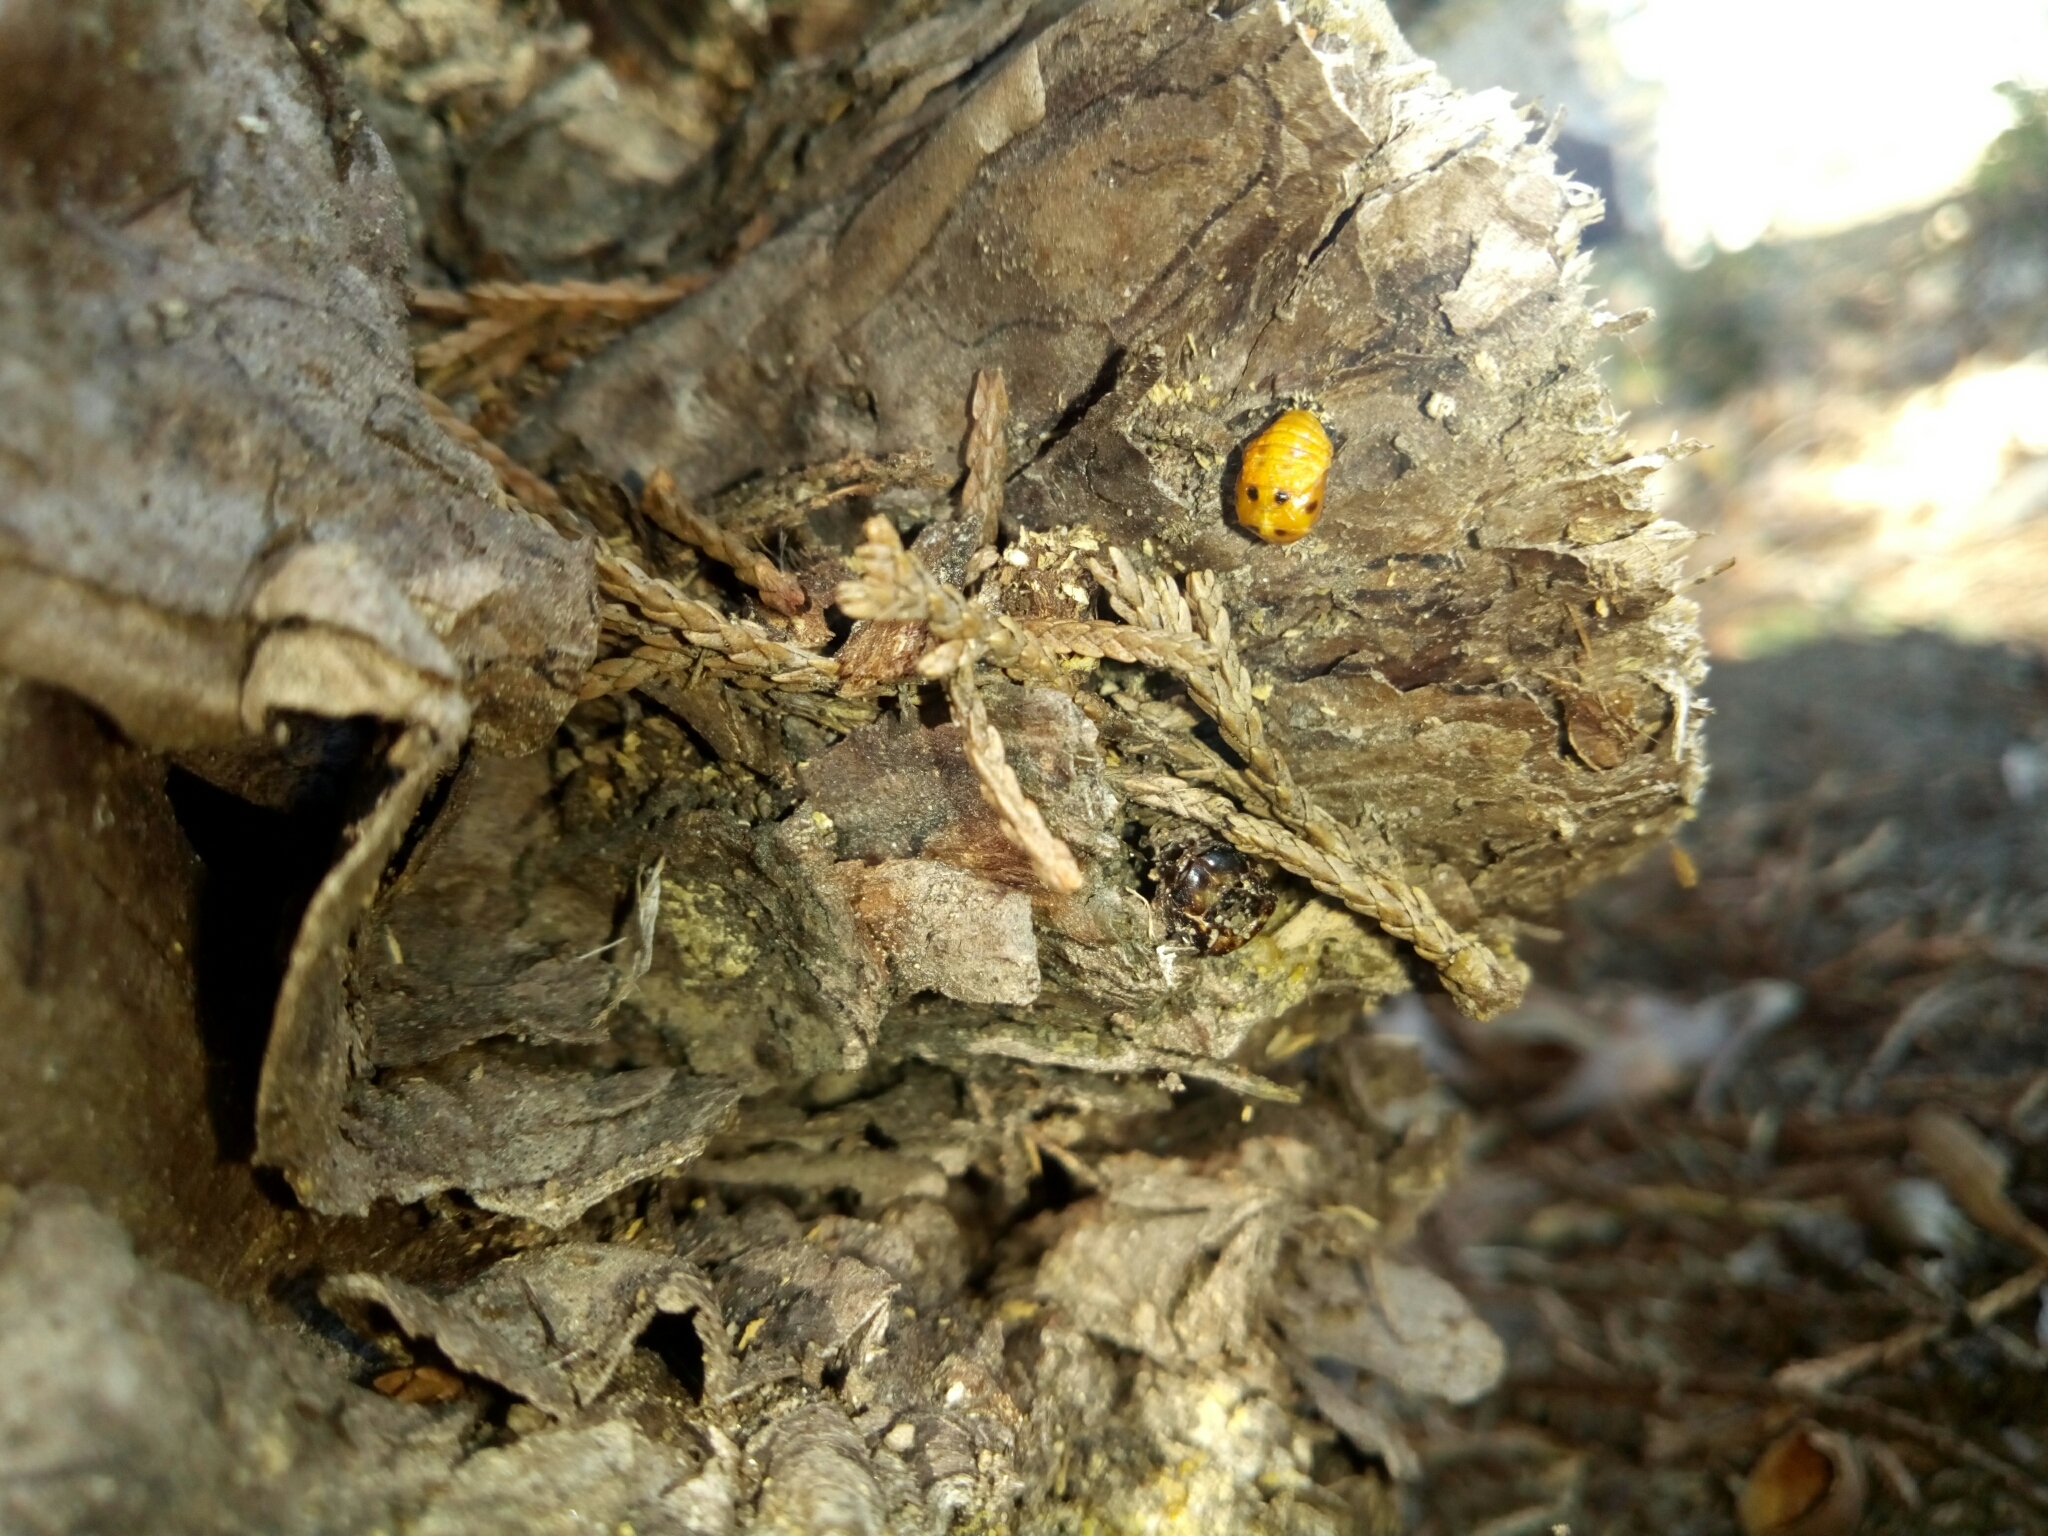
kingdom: Animalia
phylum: Arthropoda
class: Insecta
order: Coleoptera
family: Coccinellidae
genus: Harmonia
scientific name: Harmonia axyridis
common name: Harlequin ladybird
